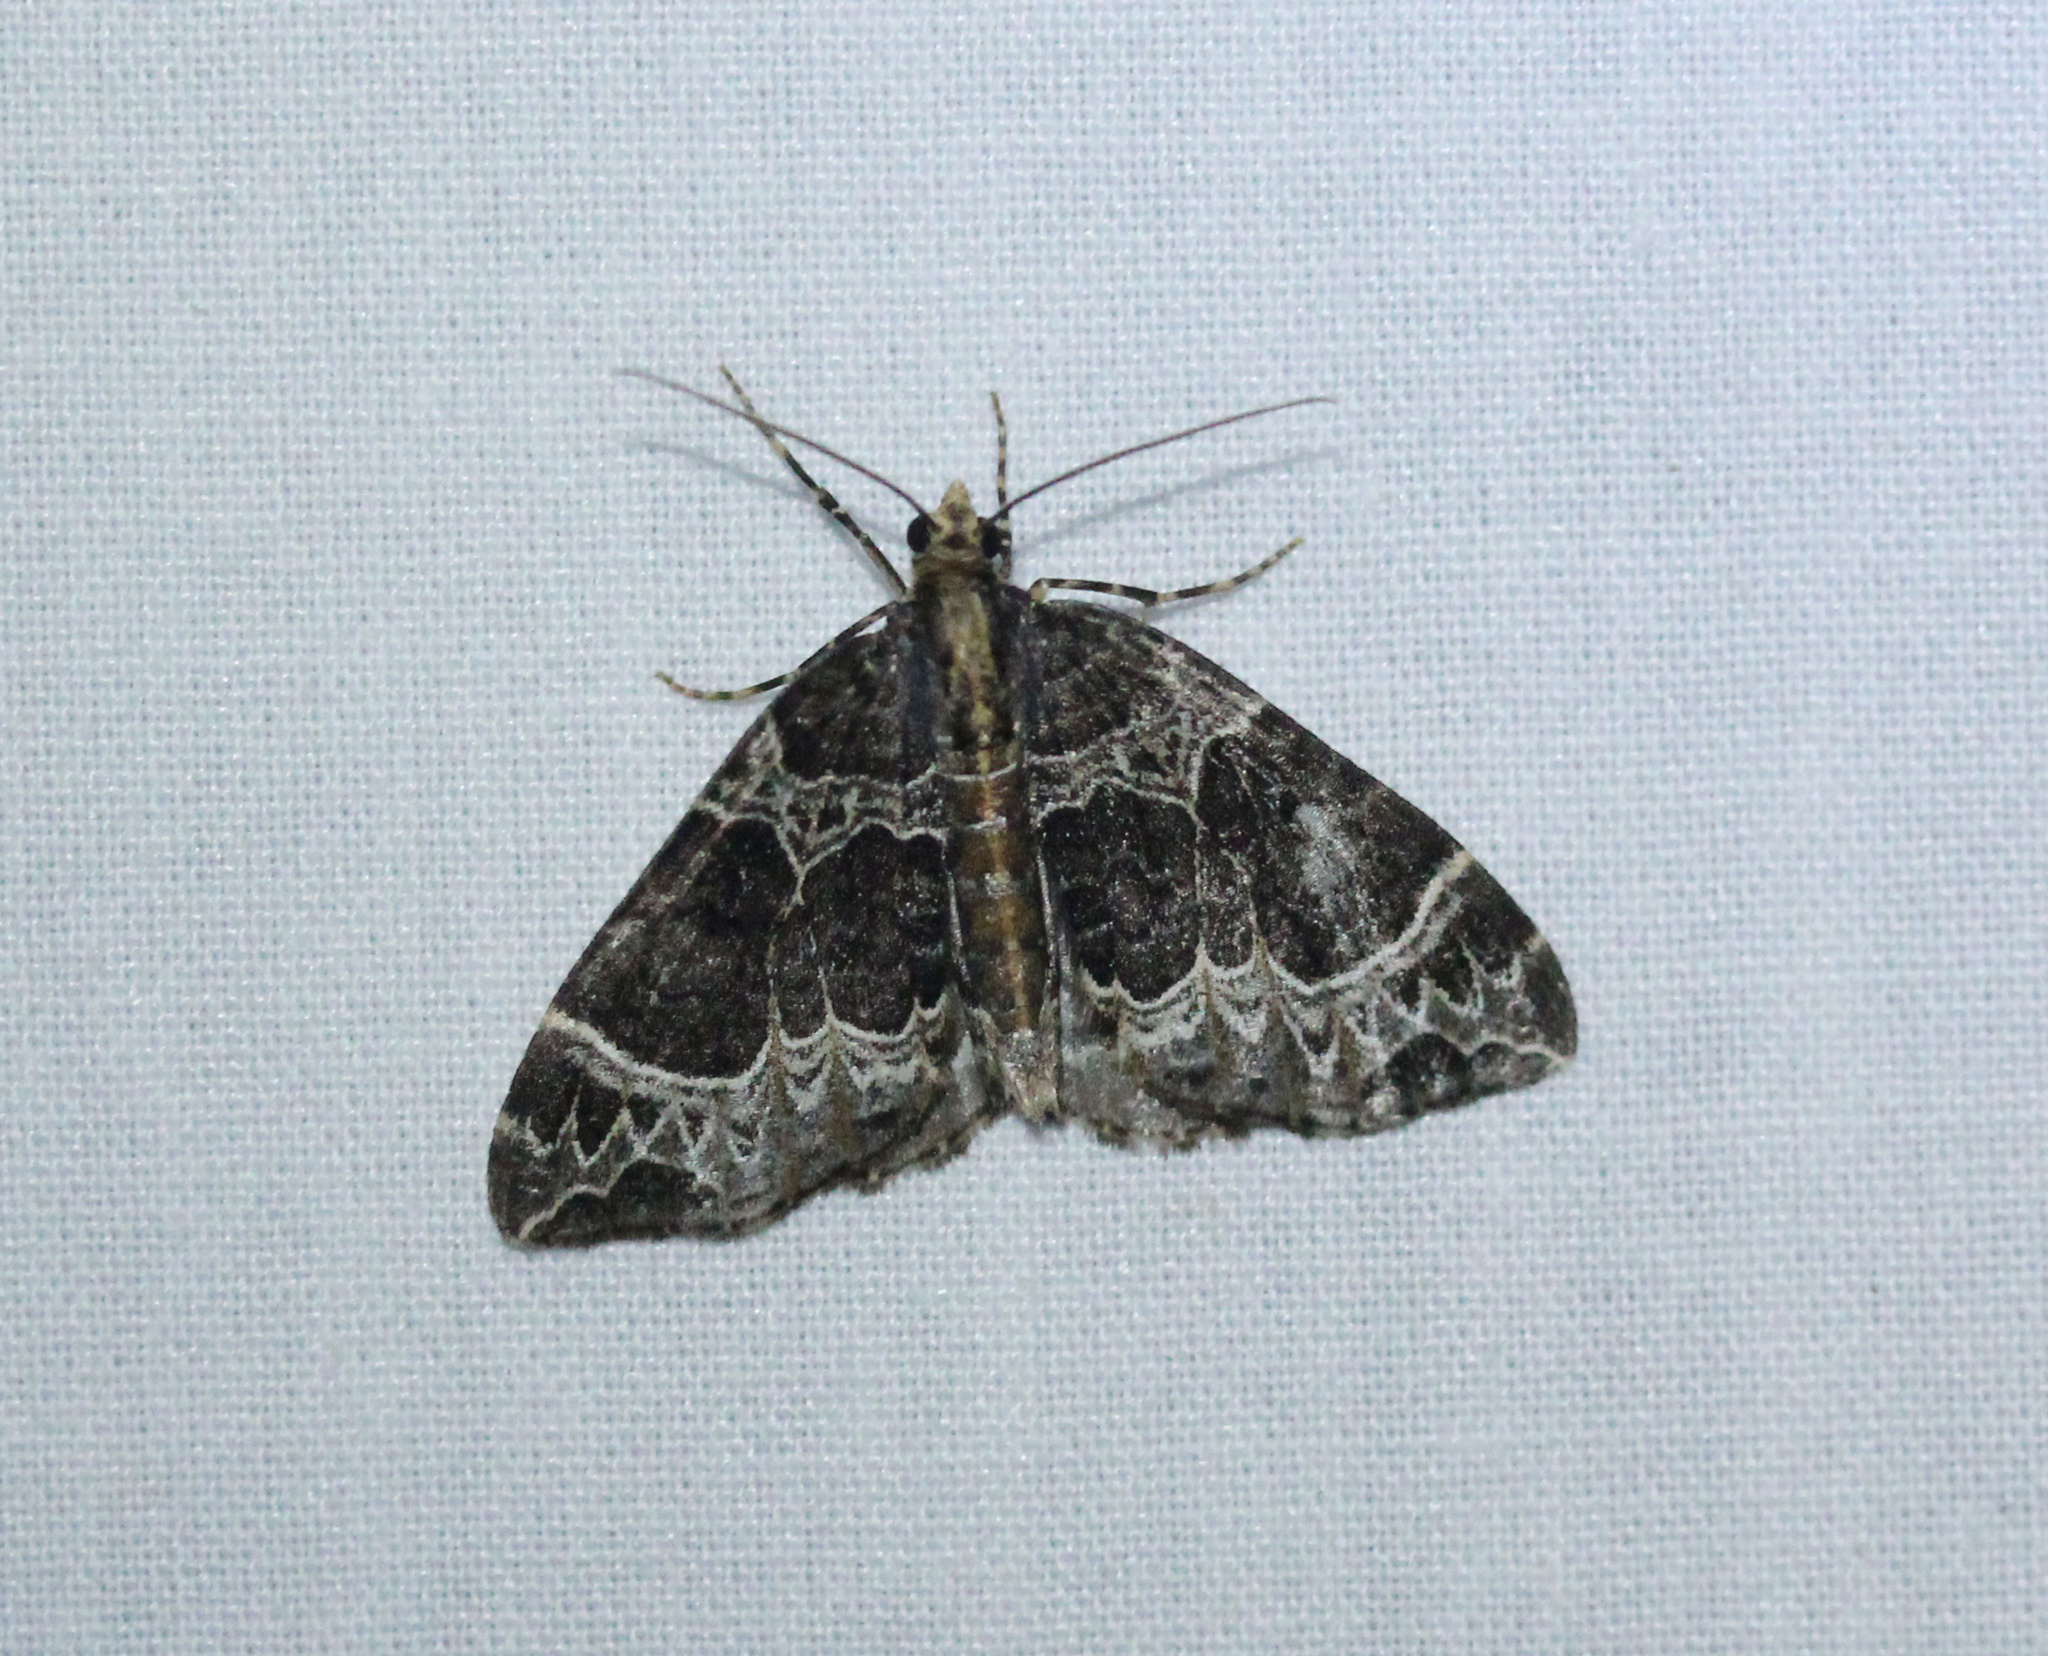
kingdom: Animalia
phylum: Arthropoda
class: Insecta
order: Lepidoptera
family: Geometridae
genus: Ecliptopera
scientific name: Ecliptopera silaceata
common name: Small phoenix
